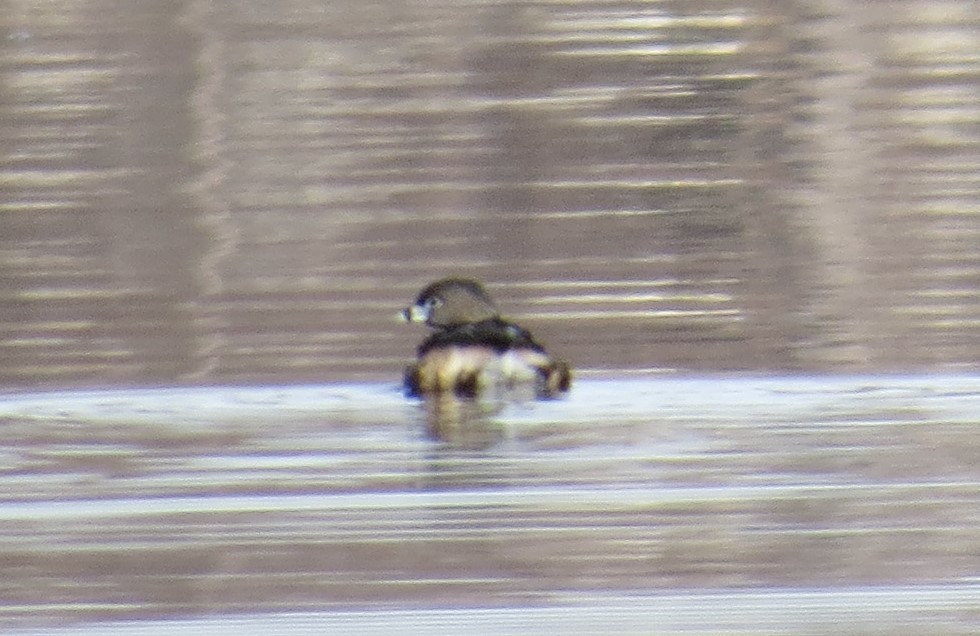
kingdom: Animalia
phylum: Chordata
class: Aves
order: Podicipediformes
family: Podicipedidae
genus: Podilymbus
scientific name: Podilymbus podiceps
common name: Pied-billed grebe
